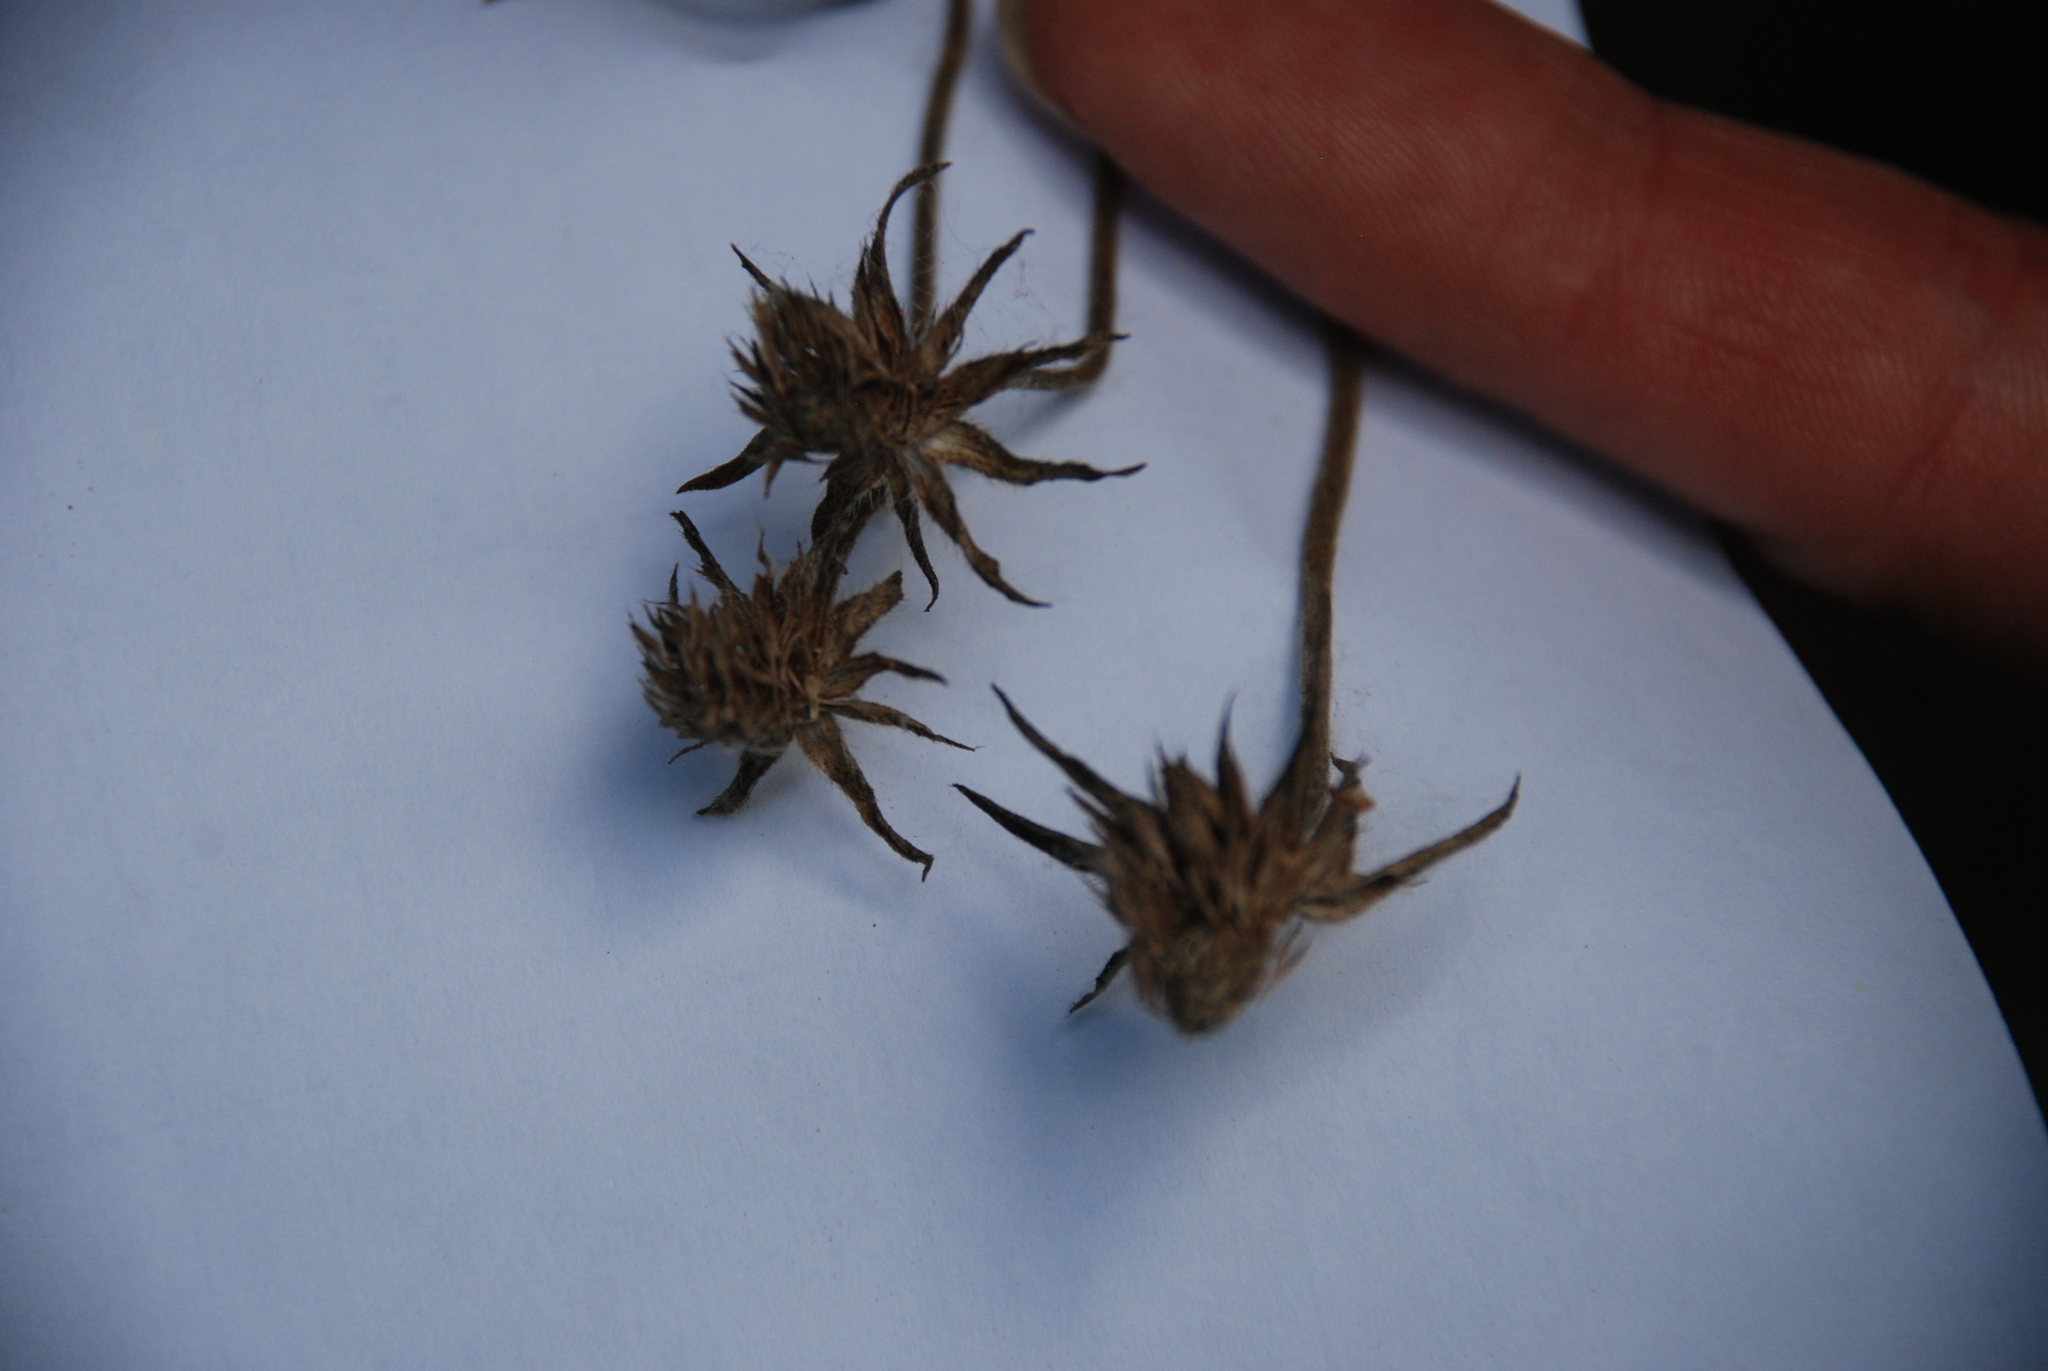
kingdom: Plantae
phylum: Tracheophyta
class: Magnoliopsida
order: Dipsacales
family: Caprifoliaceae
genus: Knautia
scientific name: Knautia arvensis
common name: Field scabiosa
